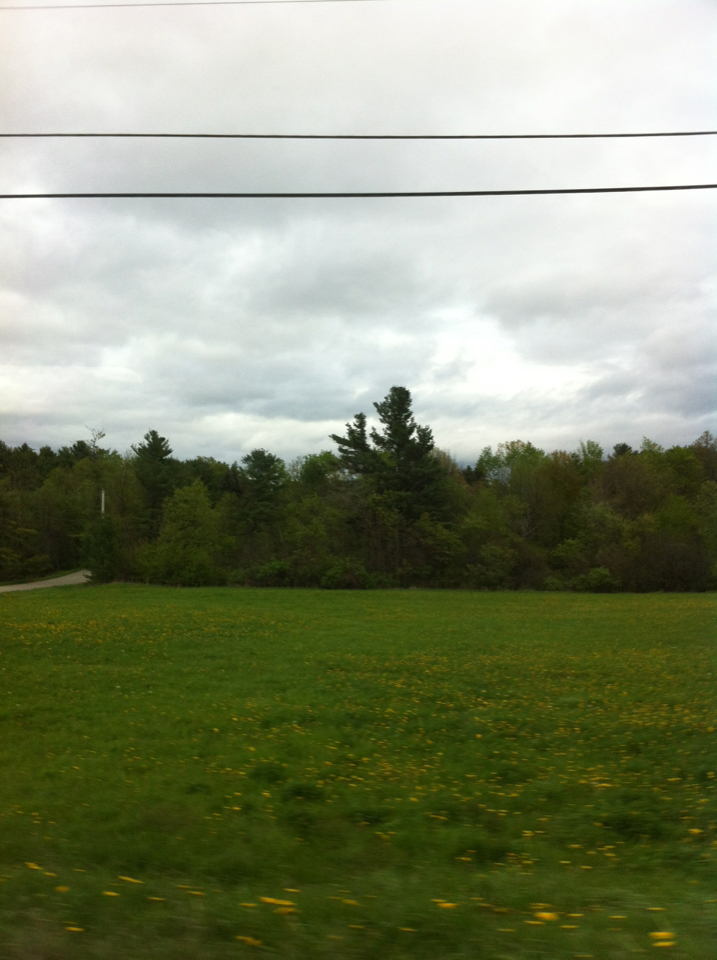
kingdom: Plantae
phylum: Tracheophyta
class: Pinopsida
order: Pinales
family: Pinaceae
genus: Pinus
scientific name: Pinus strobus
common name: Weymouth pine
